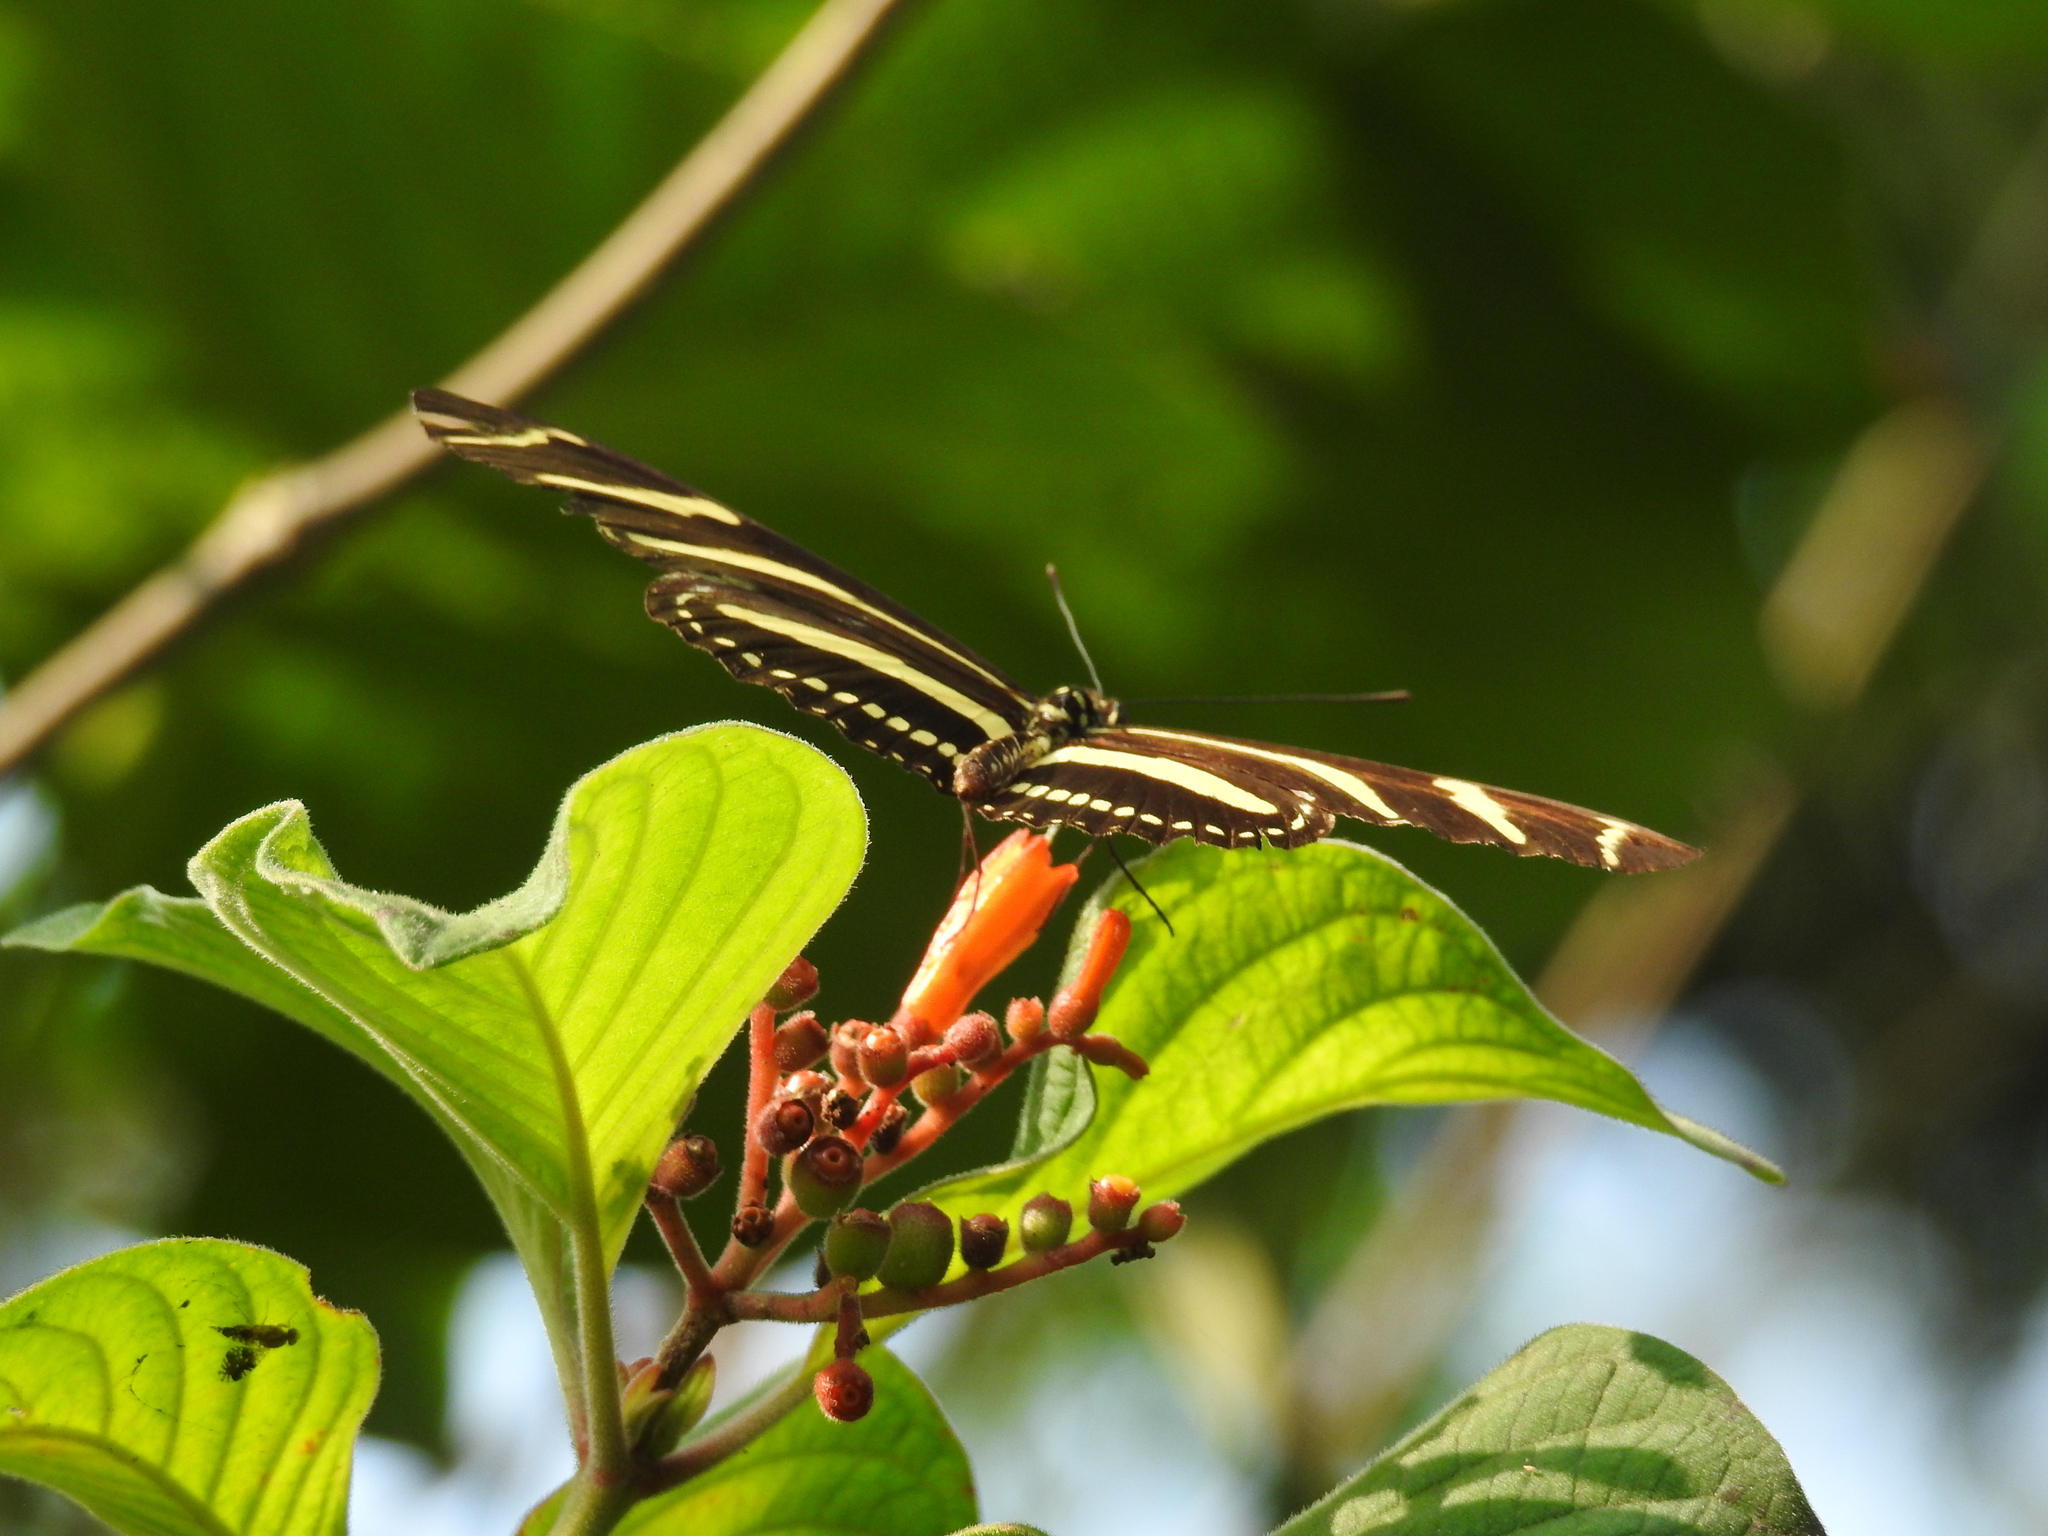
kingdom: Animalia
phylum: Arthropoda
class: Insecta
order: Lepidoptera
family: Nymphalidae
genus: Heliconius
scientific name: Heliconius charithonia
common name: Zebra long wing
